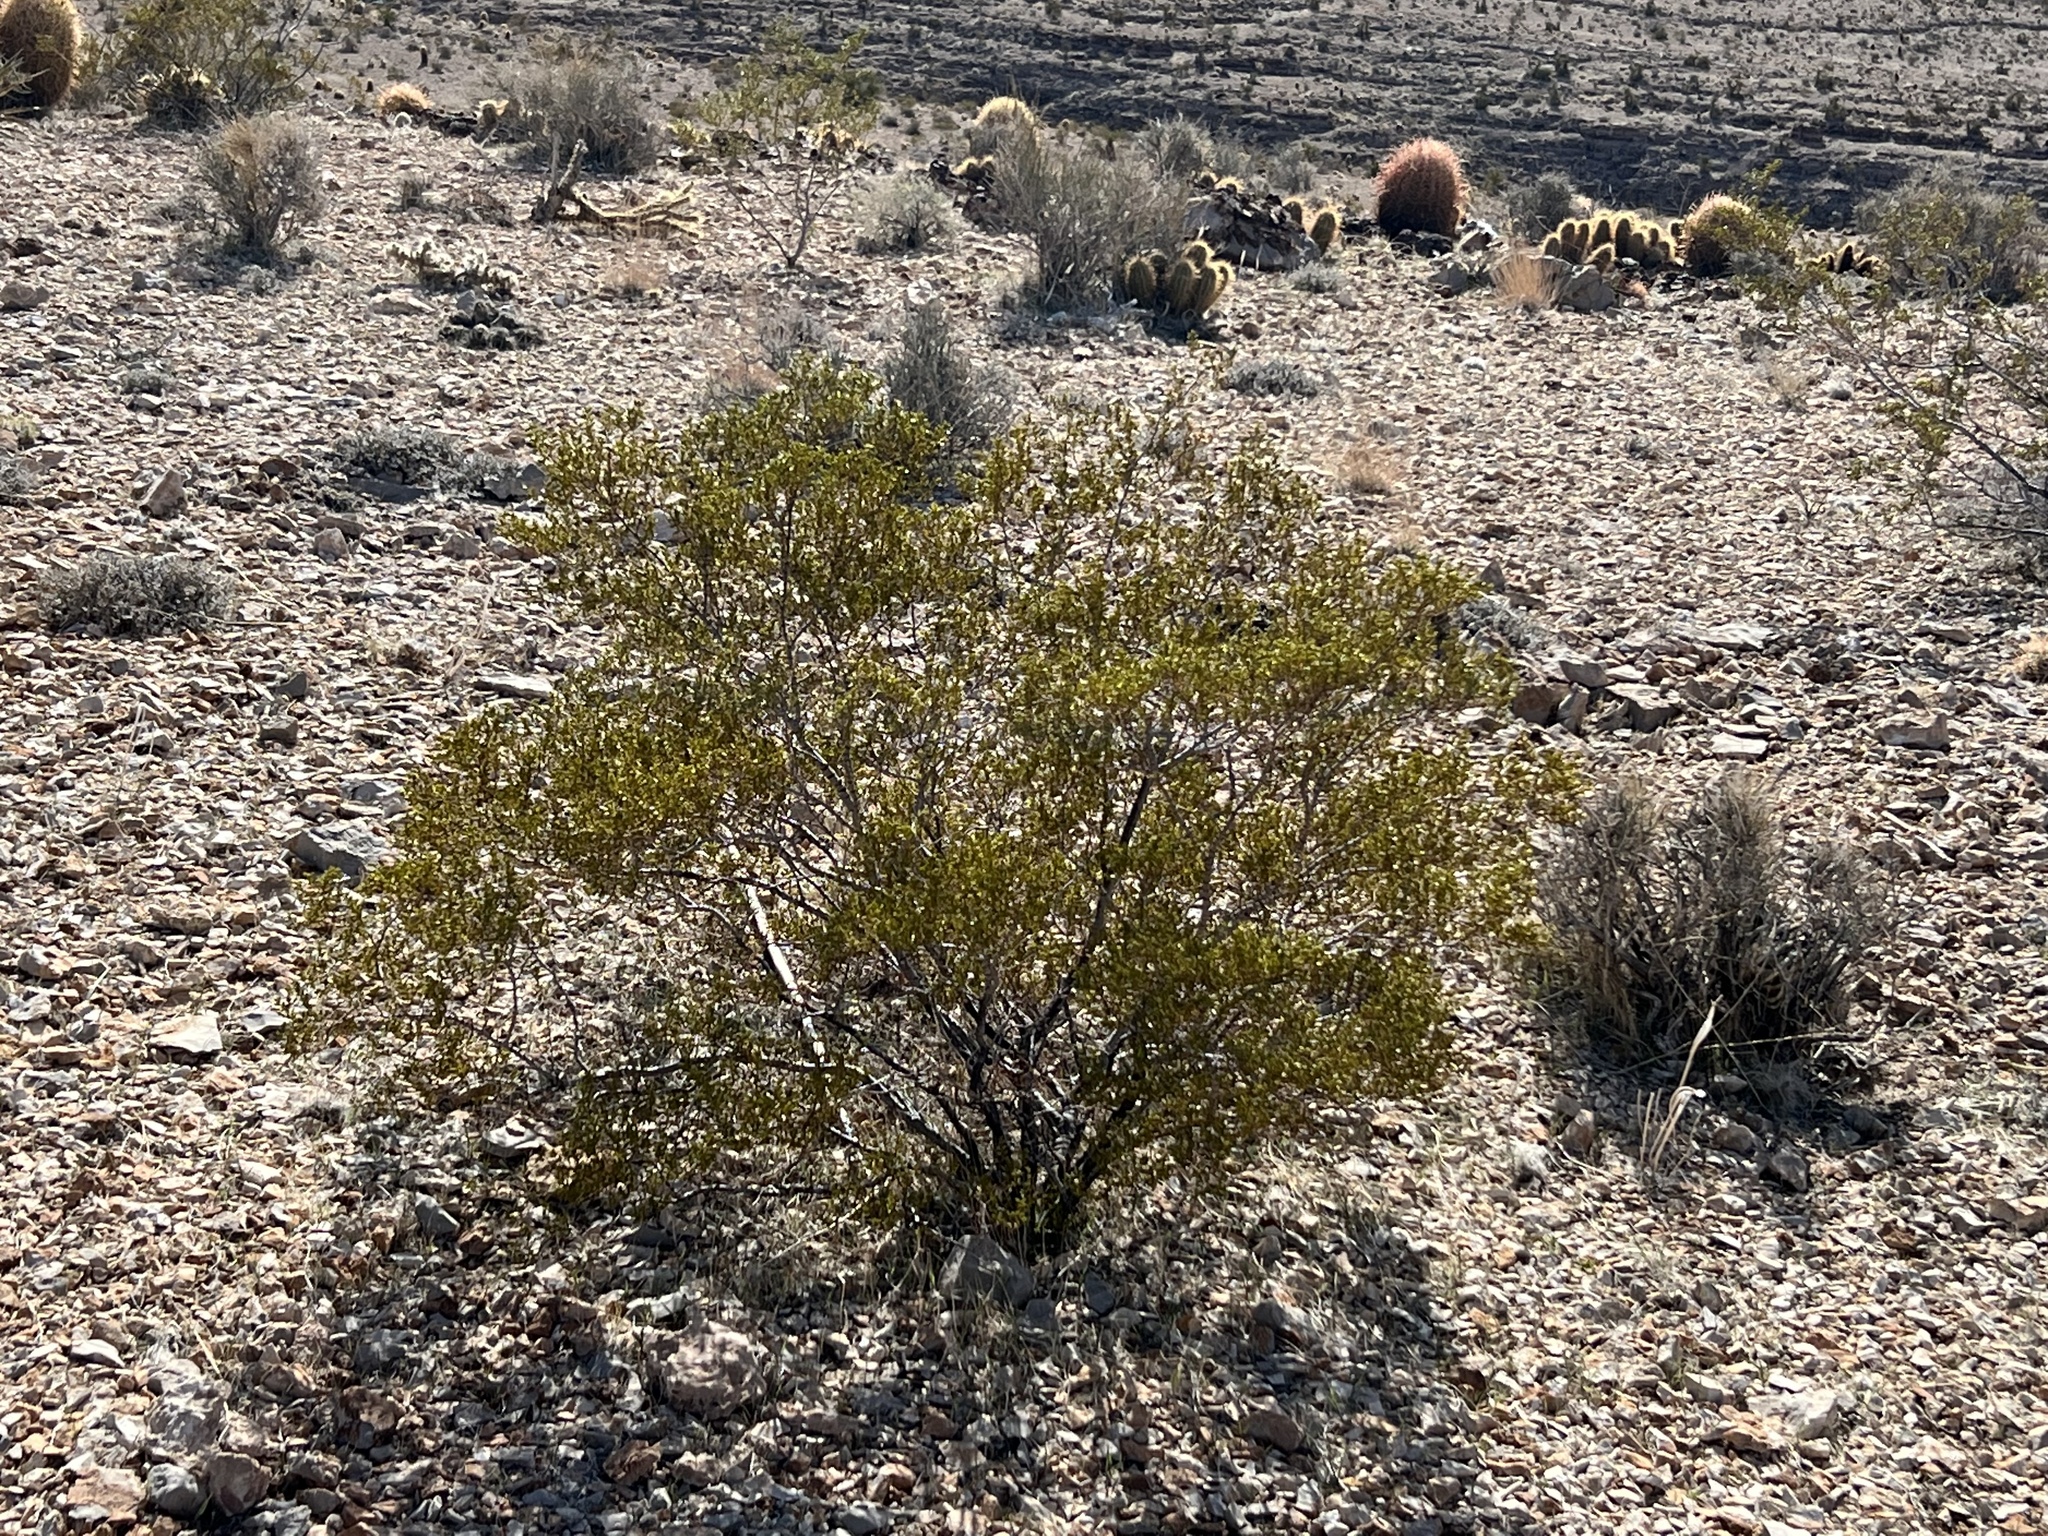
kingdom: Plantae
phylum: Tracheophyta
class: Magnoliopsida
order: Zygophyllales
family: Zygophyllaceae
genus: Larrea
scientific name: Larrea tridentata
